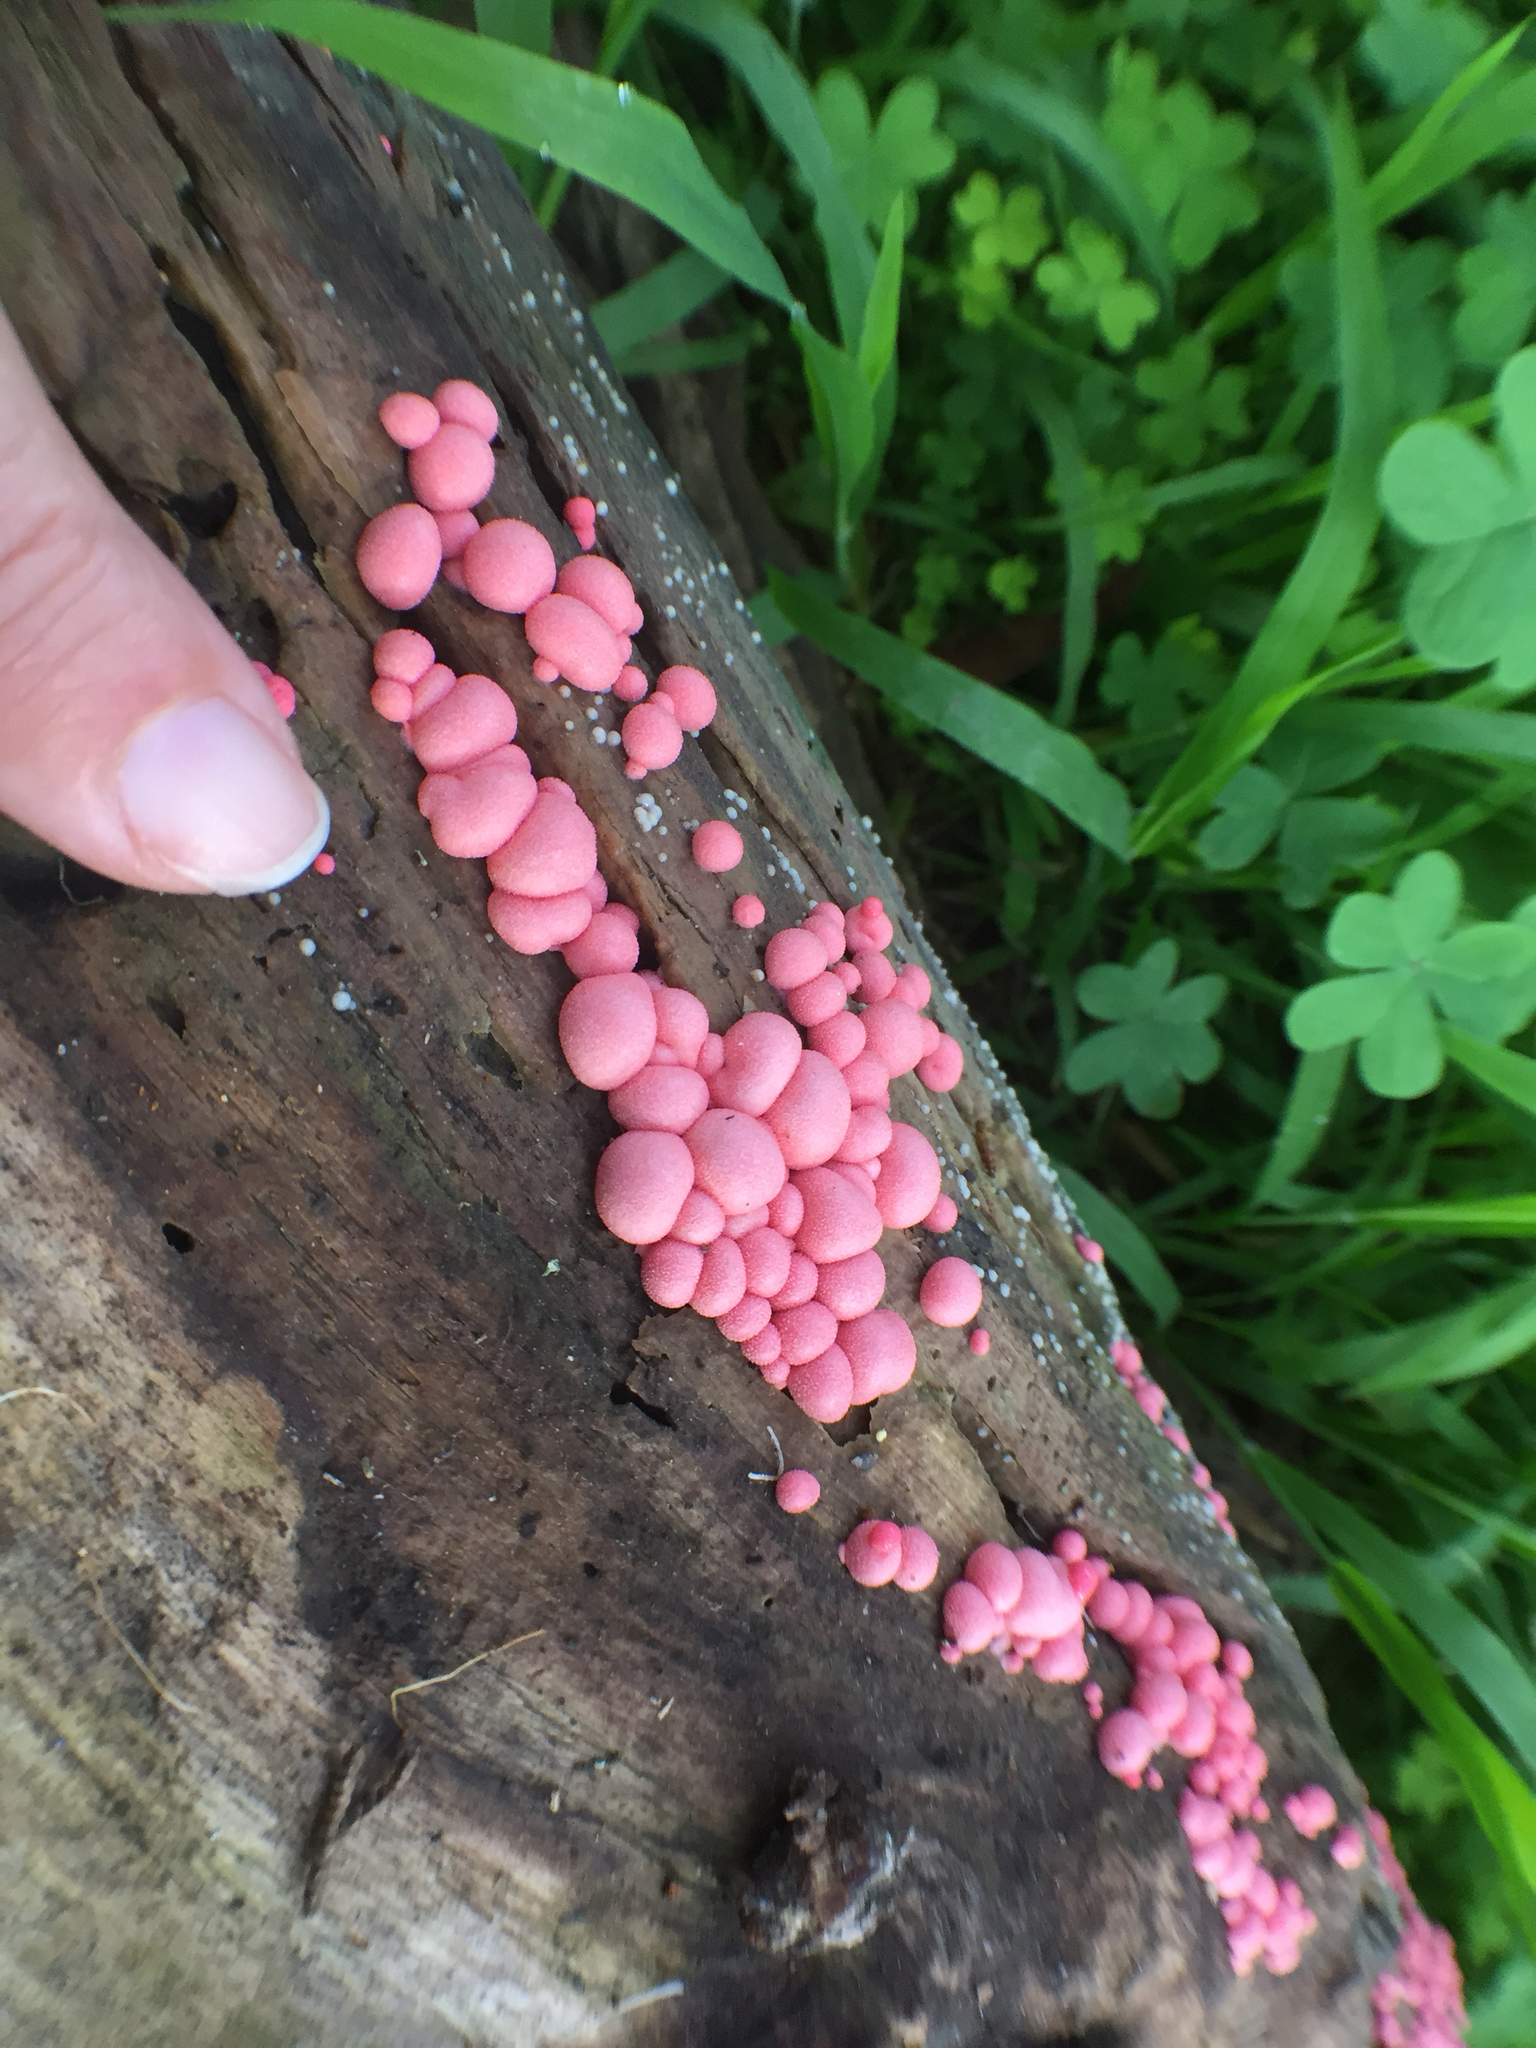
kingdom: Protozoa
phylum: Mycetozoa
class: Myxomycetes
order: Cribrariales
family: Tubiferaceae
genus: Lycogala
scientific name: Lycogala epidendrum
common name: Wolf's milk
